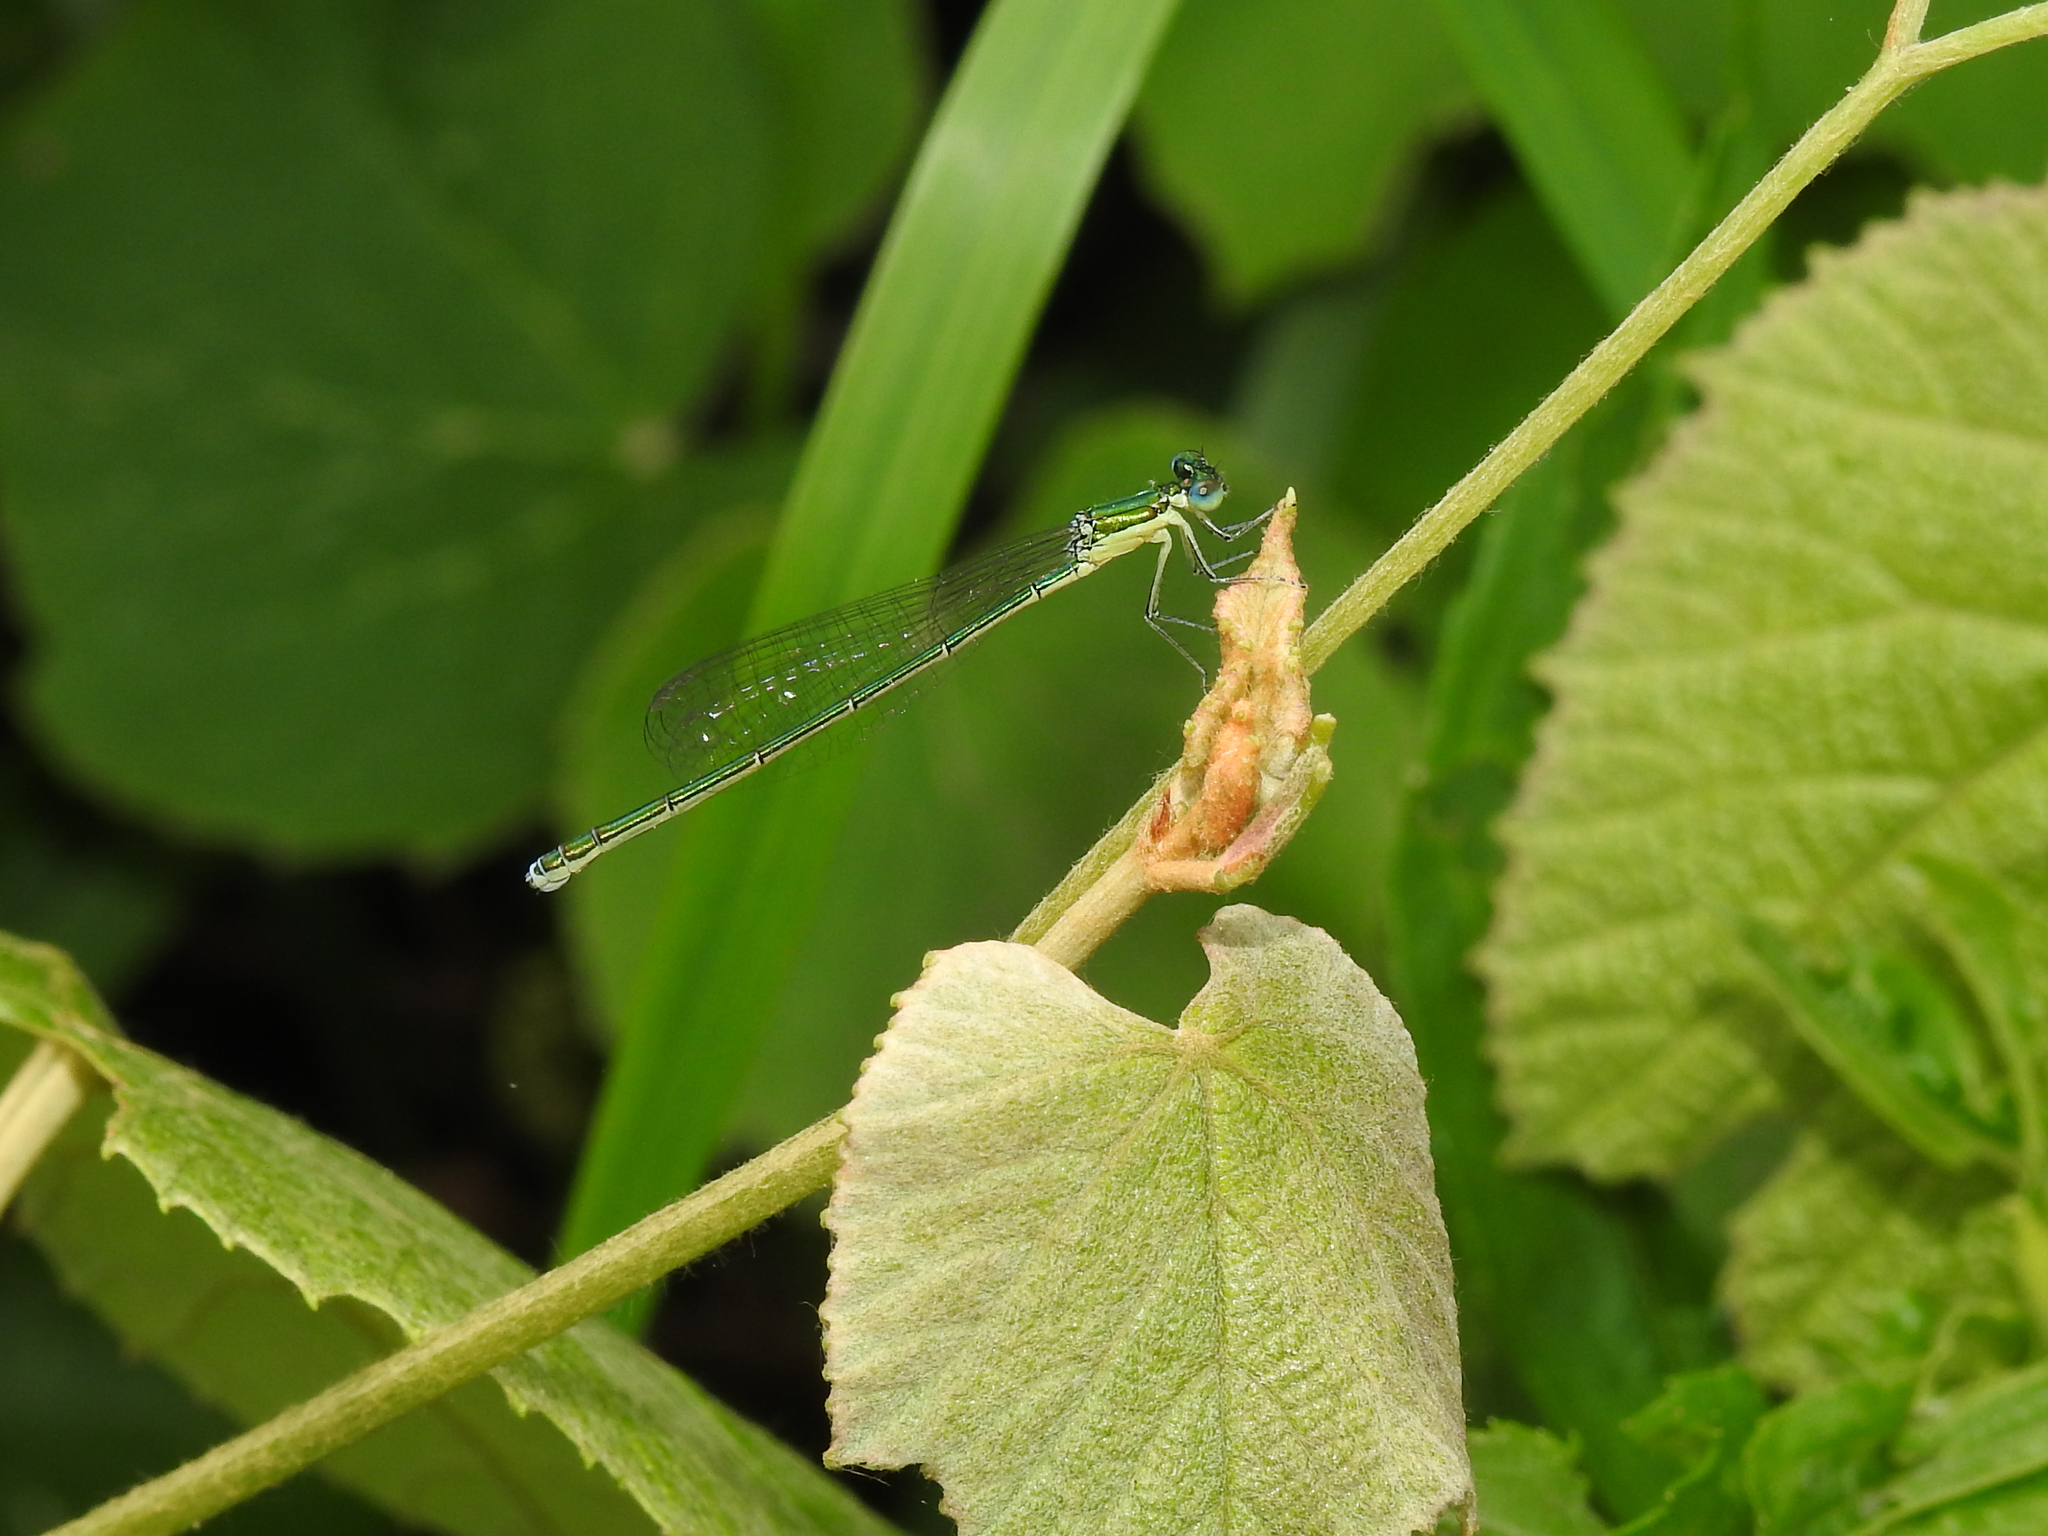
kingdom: Animalia
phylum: Arthropoda
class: Insecta
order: Odonata
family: Coenagrionidae
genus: Nehalennia
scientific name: Nehalennia irene
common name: Sedge sprite
